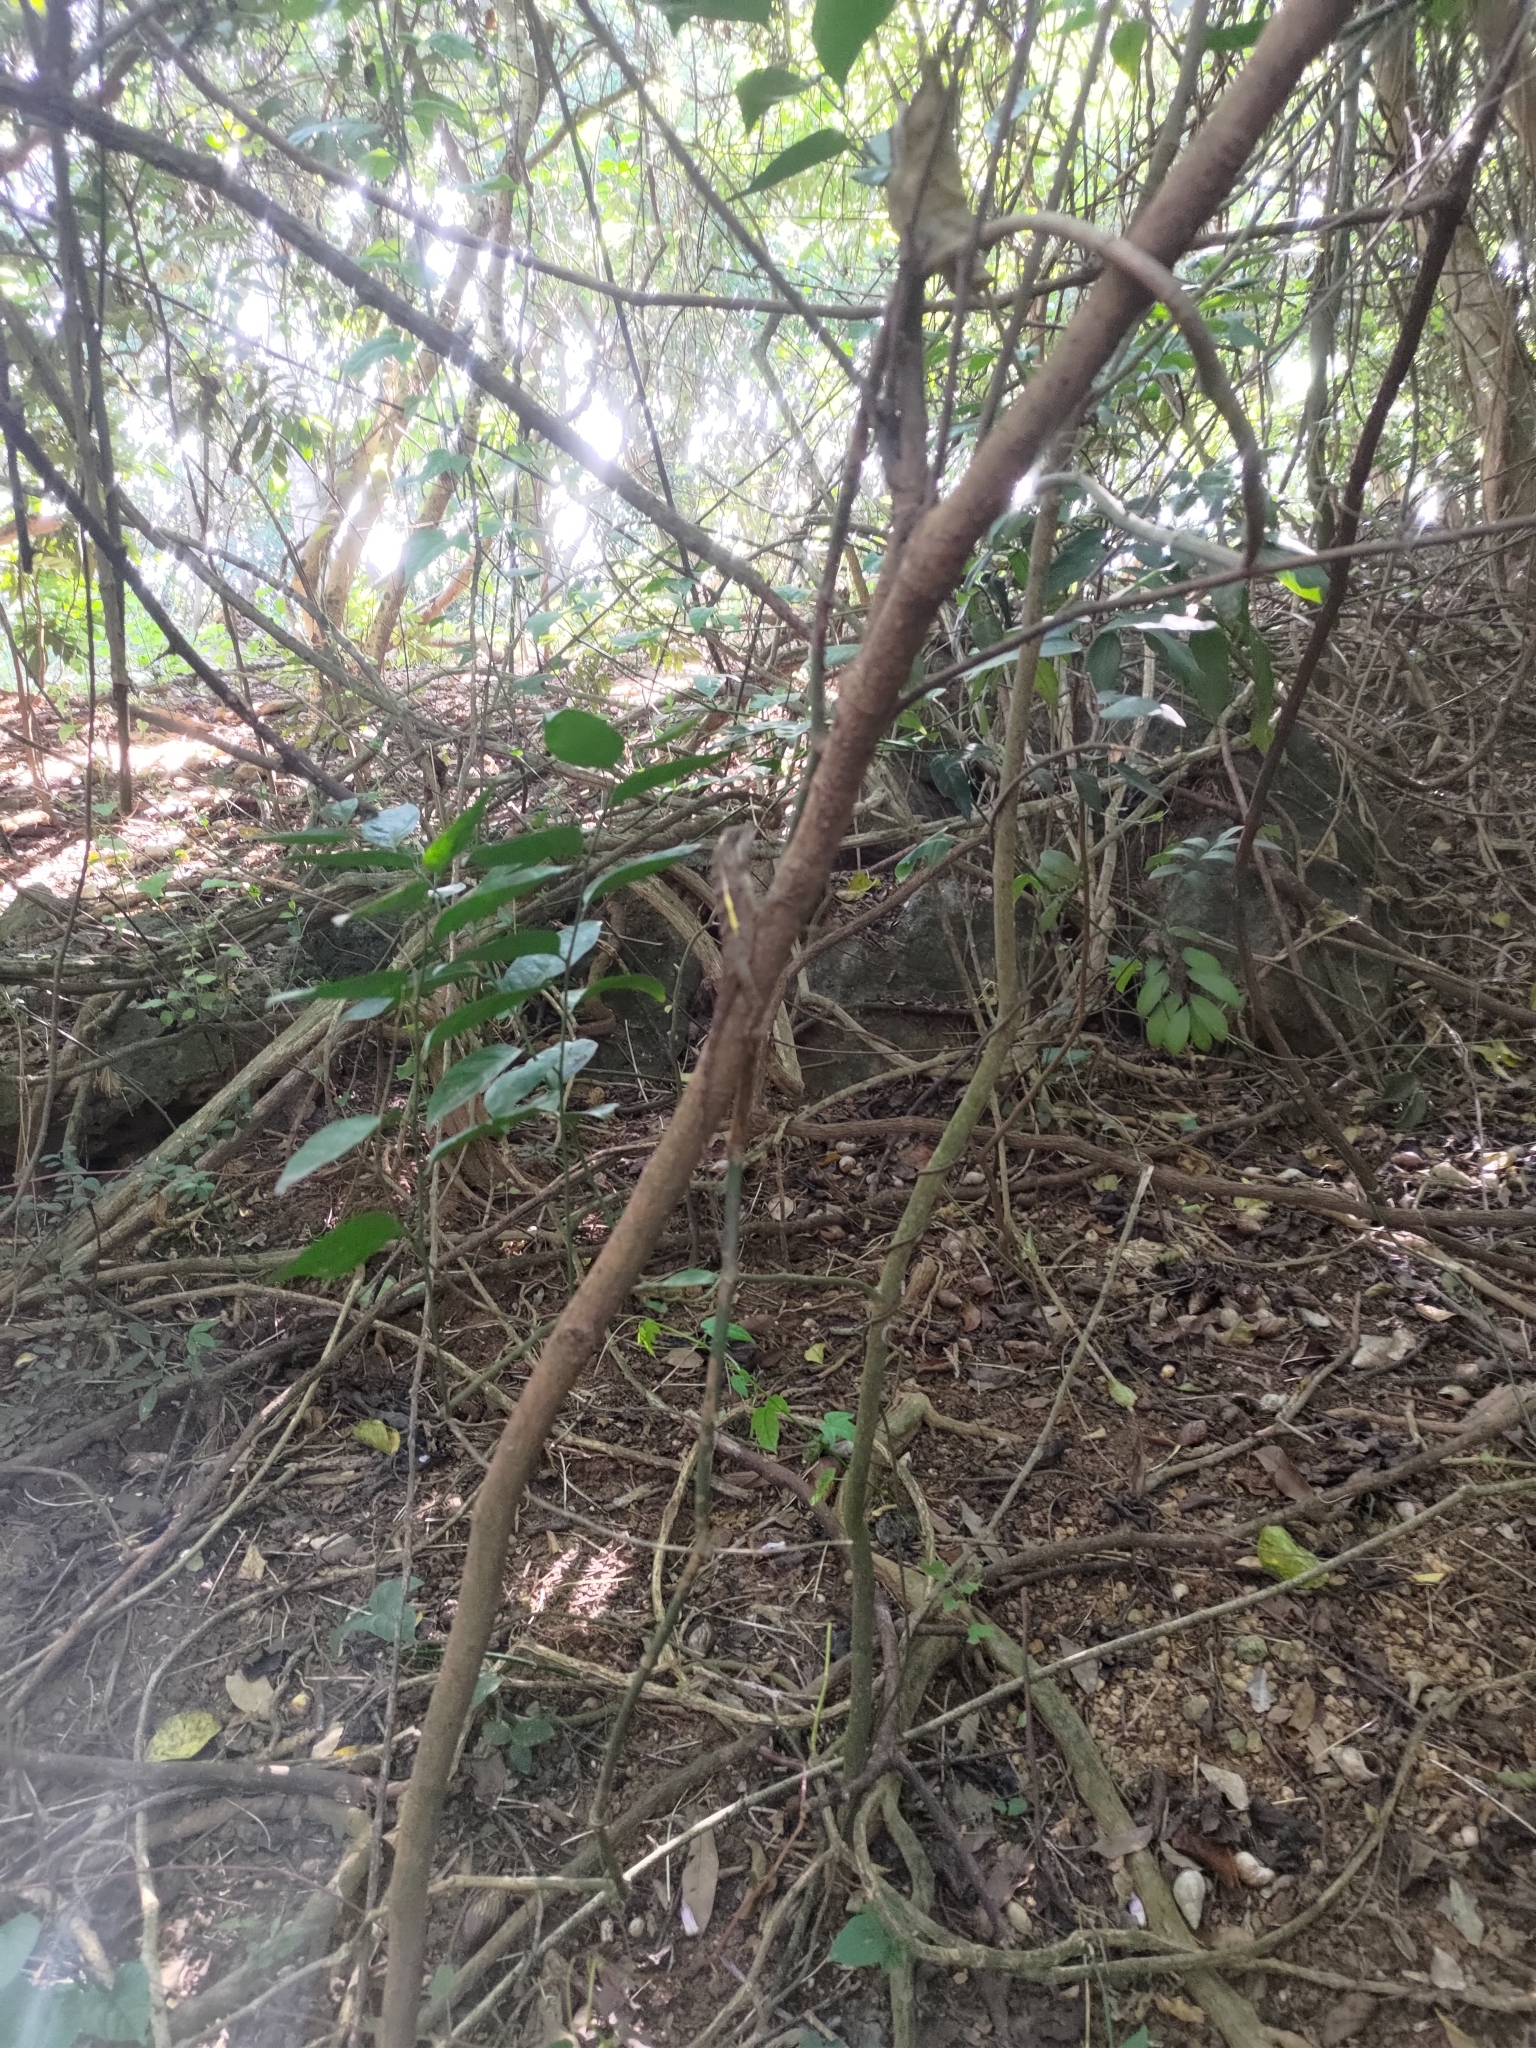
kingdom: Animalia
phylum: Chordata
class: Squamata
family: Agamidae
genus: Diploderma
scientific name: Diploderma swinhonis
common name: Taiwan japalure
